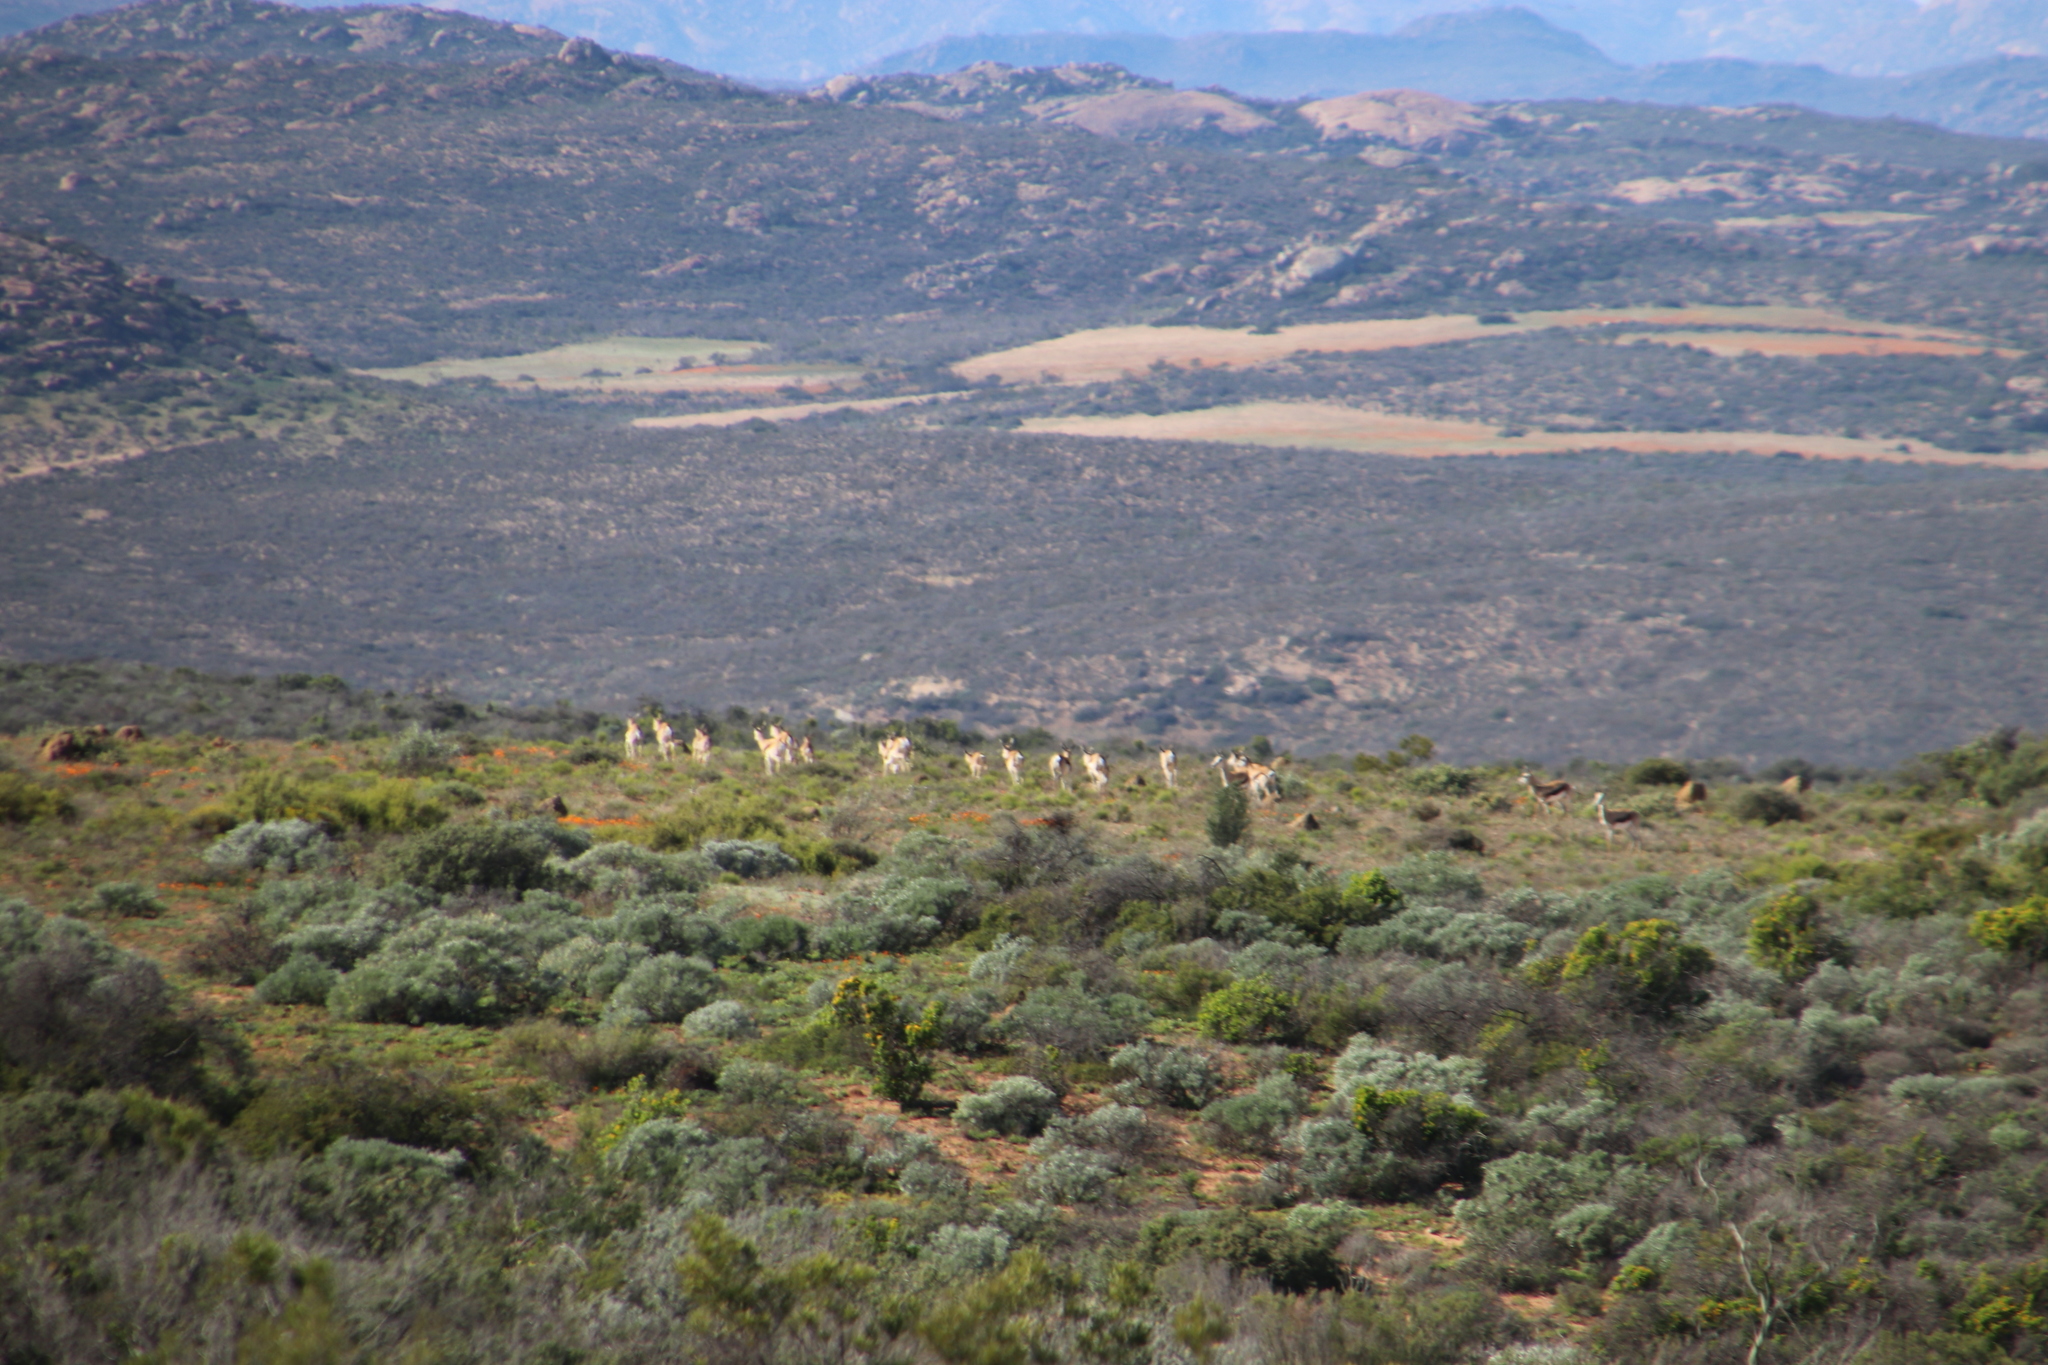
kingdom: Animalia
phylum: Chordata
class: Mammalia
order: Artiodactyla
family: Bovidae
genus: Antidorcas
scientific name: Antidorcas marsupialis
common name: Springbok
